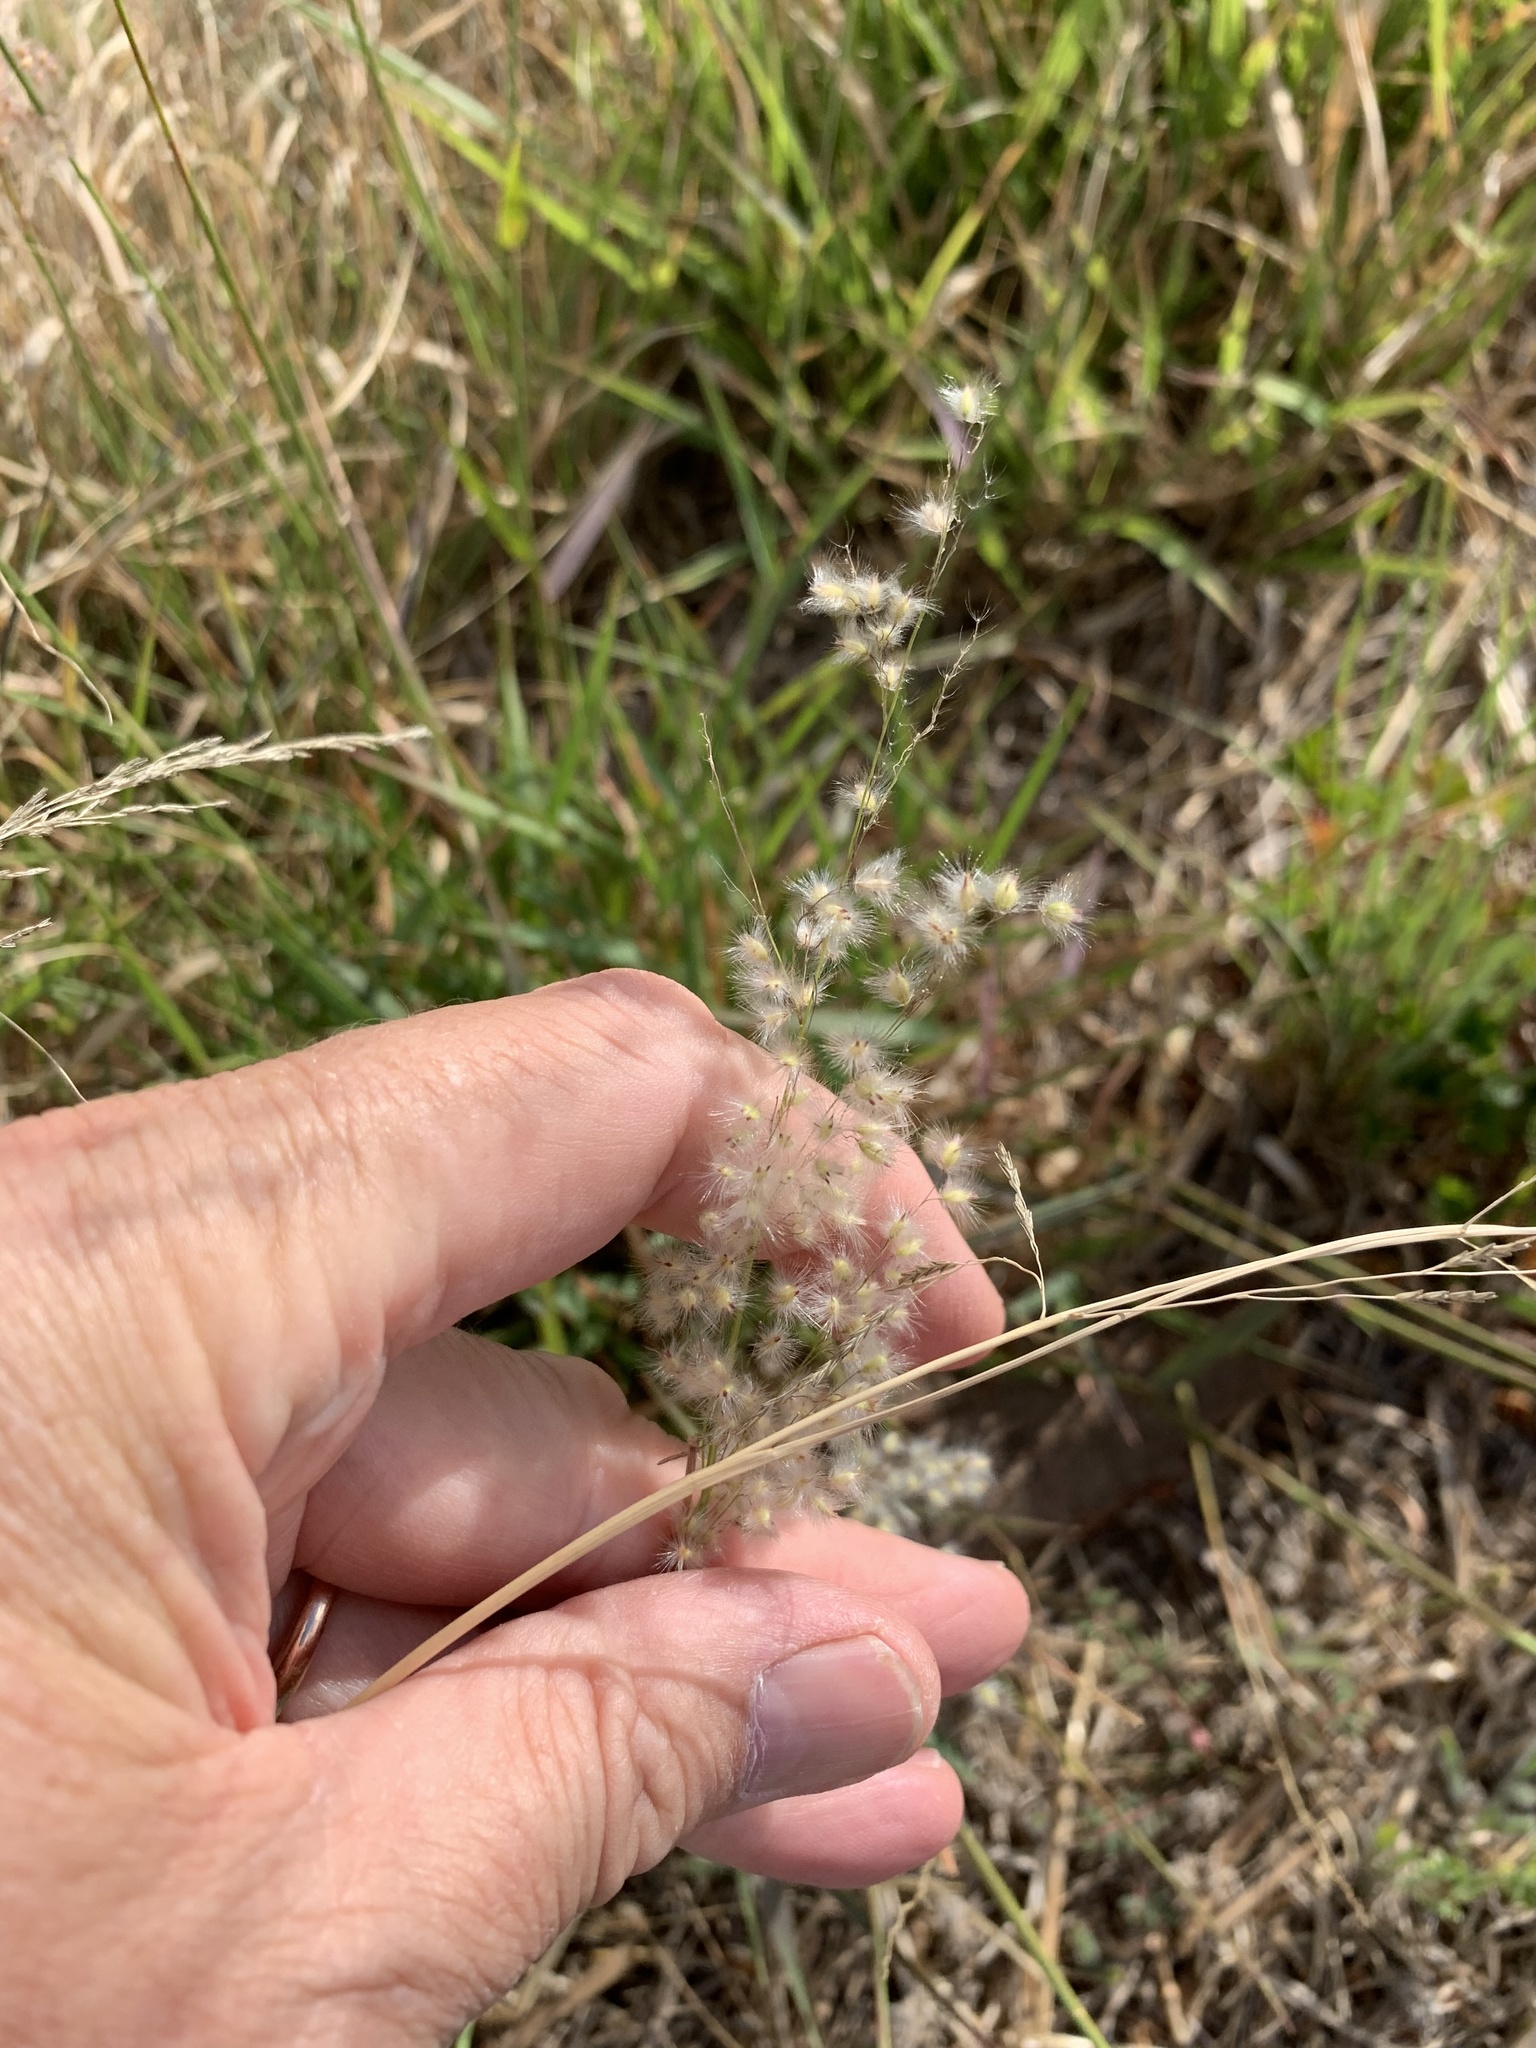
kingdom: Plantae
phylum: Tracheophyta
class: Liliopsida
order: Poales
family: Poaceae
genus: Melinis
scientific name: Melinis repens
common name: Rose natal grass
